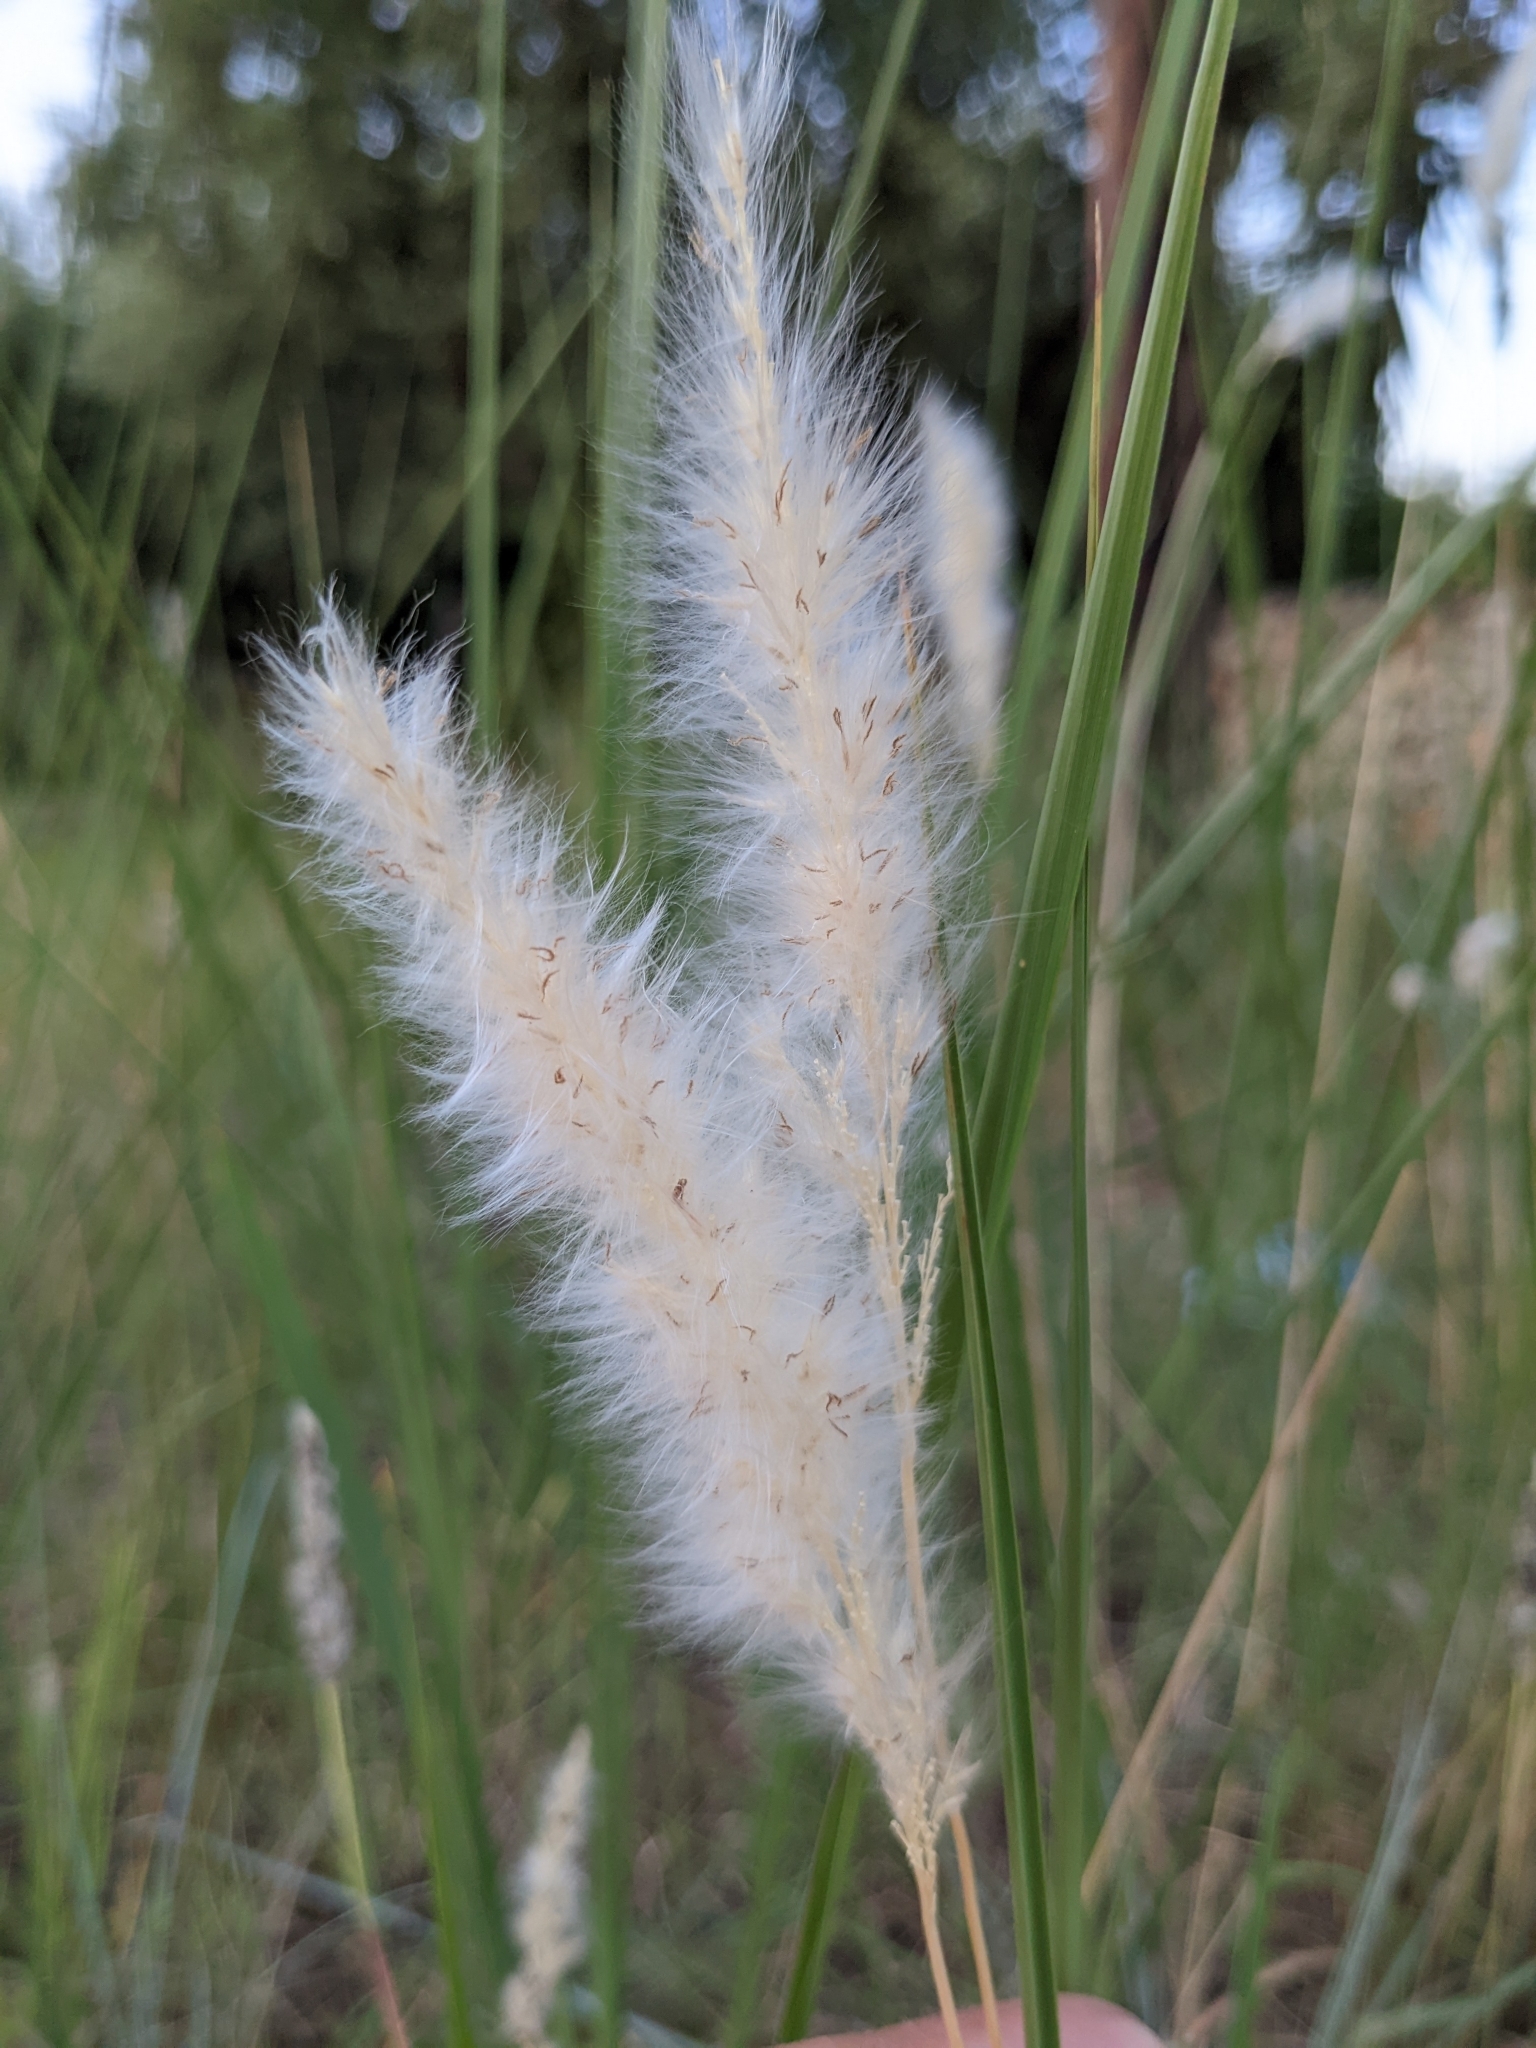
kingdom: Plantae
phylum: Tracheophyta
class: Liliopsida
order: Poales
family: Poaceae
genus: Imperata
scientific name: Imperata cylindrica
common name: Cogongrass
